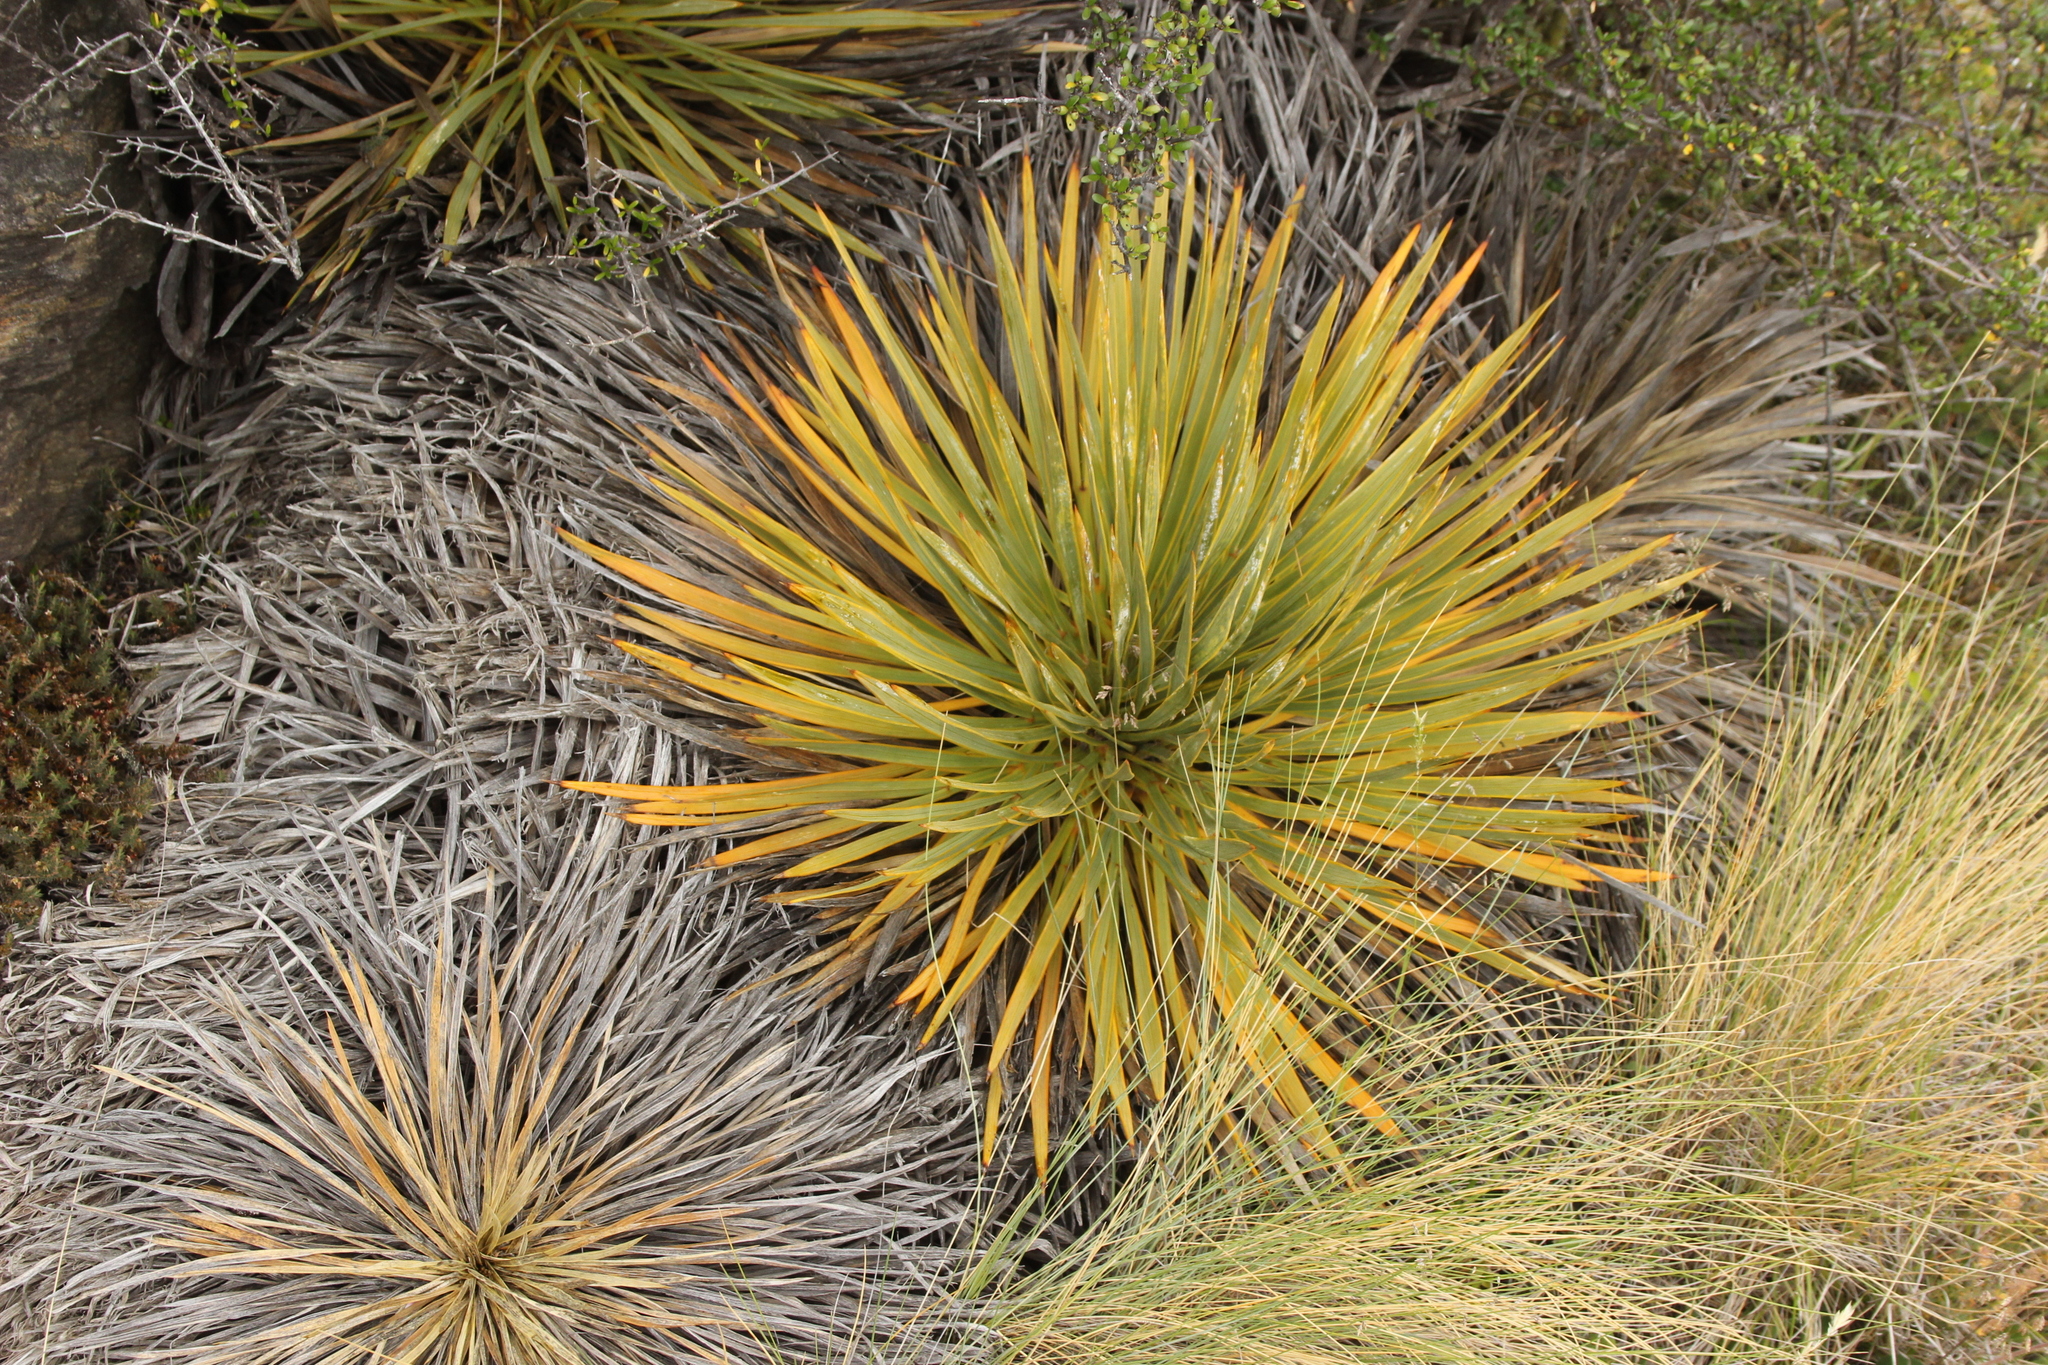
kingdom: Plantae
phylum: Tracheophyta
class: Magnoliopsida
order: Apiales
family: Apiaceae
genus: Aciphylla
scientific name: Aciphylla aurea
